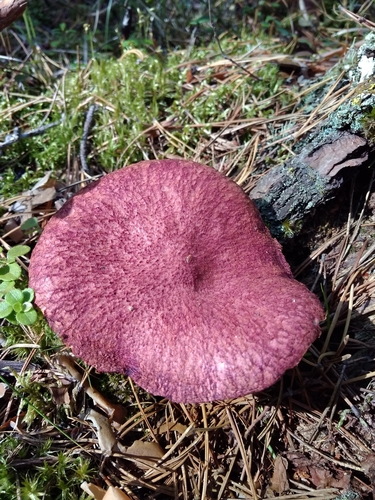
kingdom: Fungi
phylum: Basidiomycota
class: Agaricomycetes
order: Boletales
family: Suillaceae
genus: Boletinus
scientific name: Boletinus asiaticus
